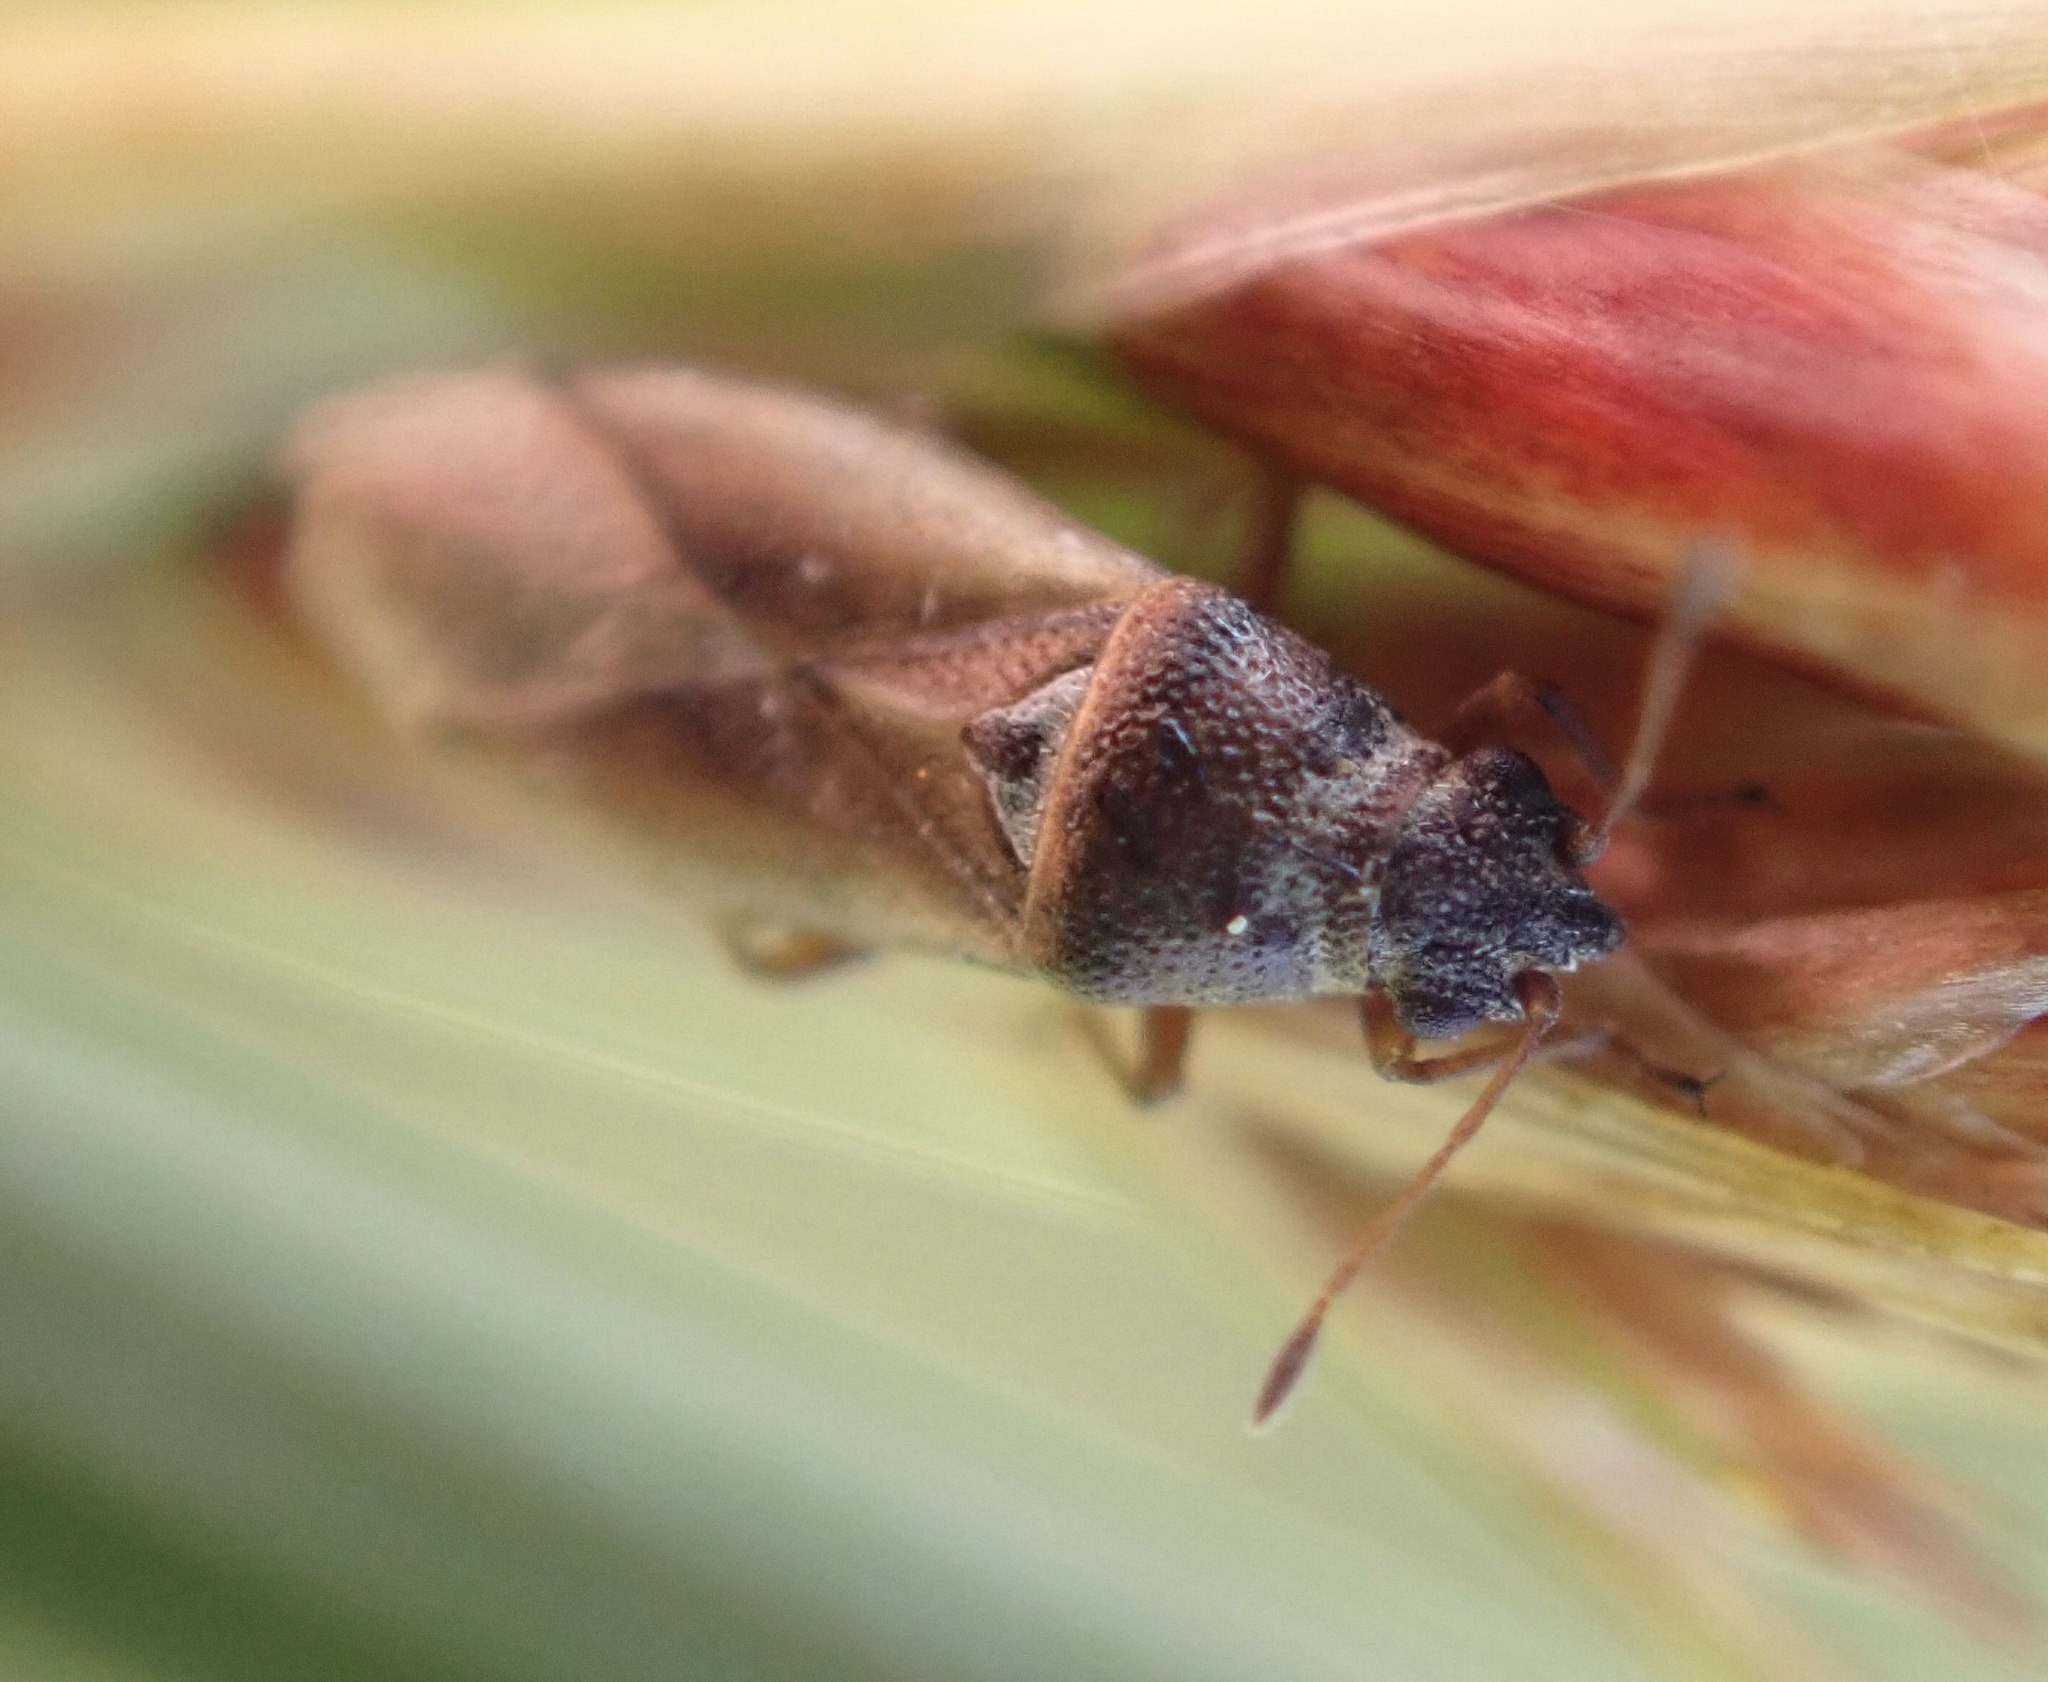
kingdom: Animalia
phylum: Arthropoda
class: Insecta
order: Hemiptera
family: Cymidae
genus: Cymus
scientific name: Cymus melanocephalus
